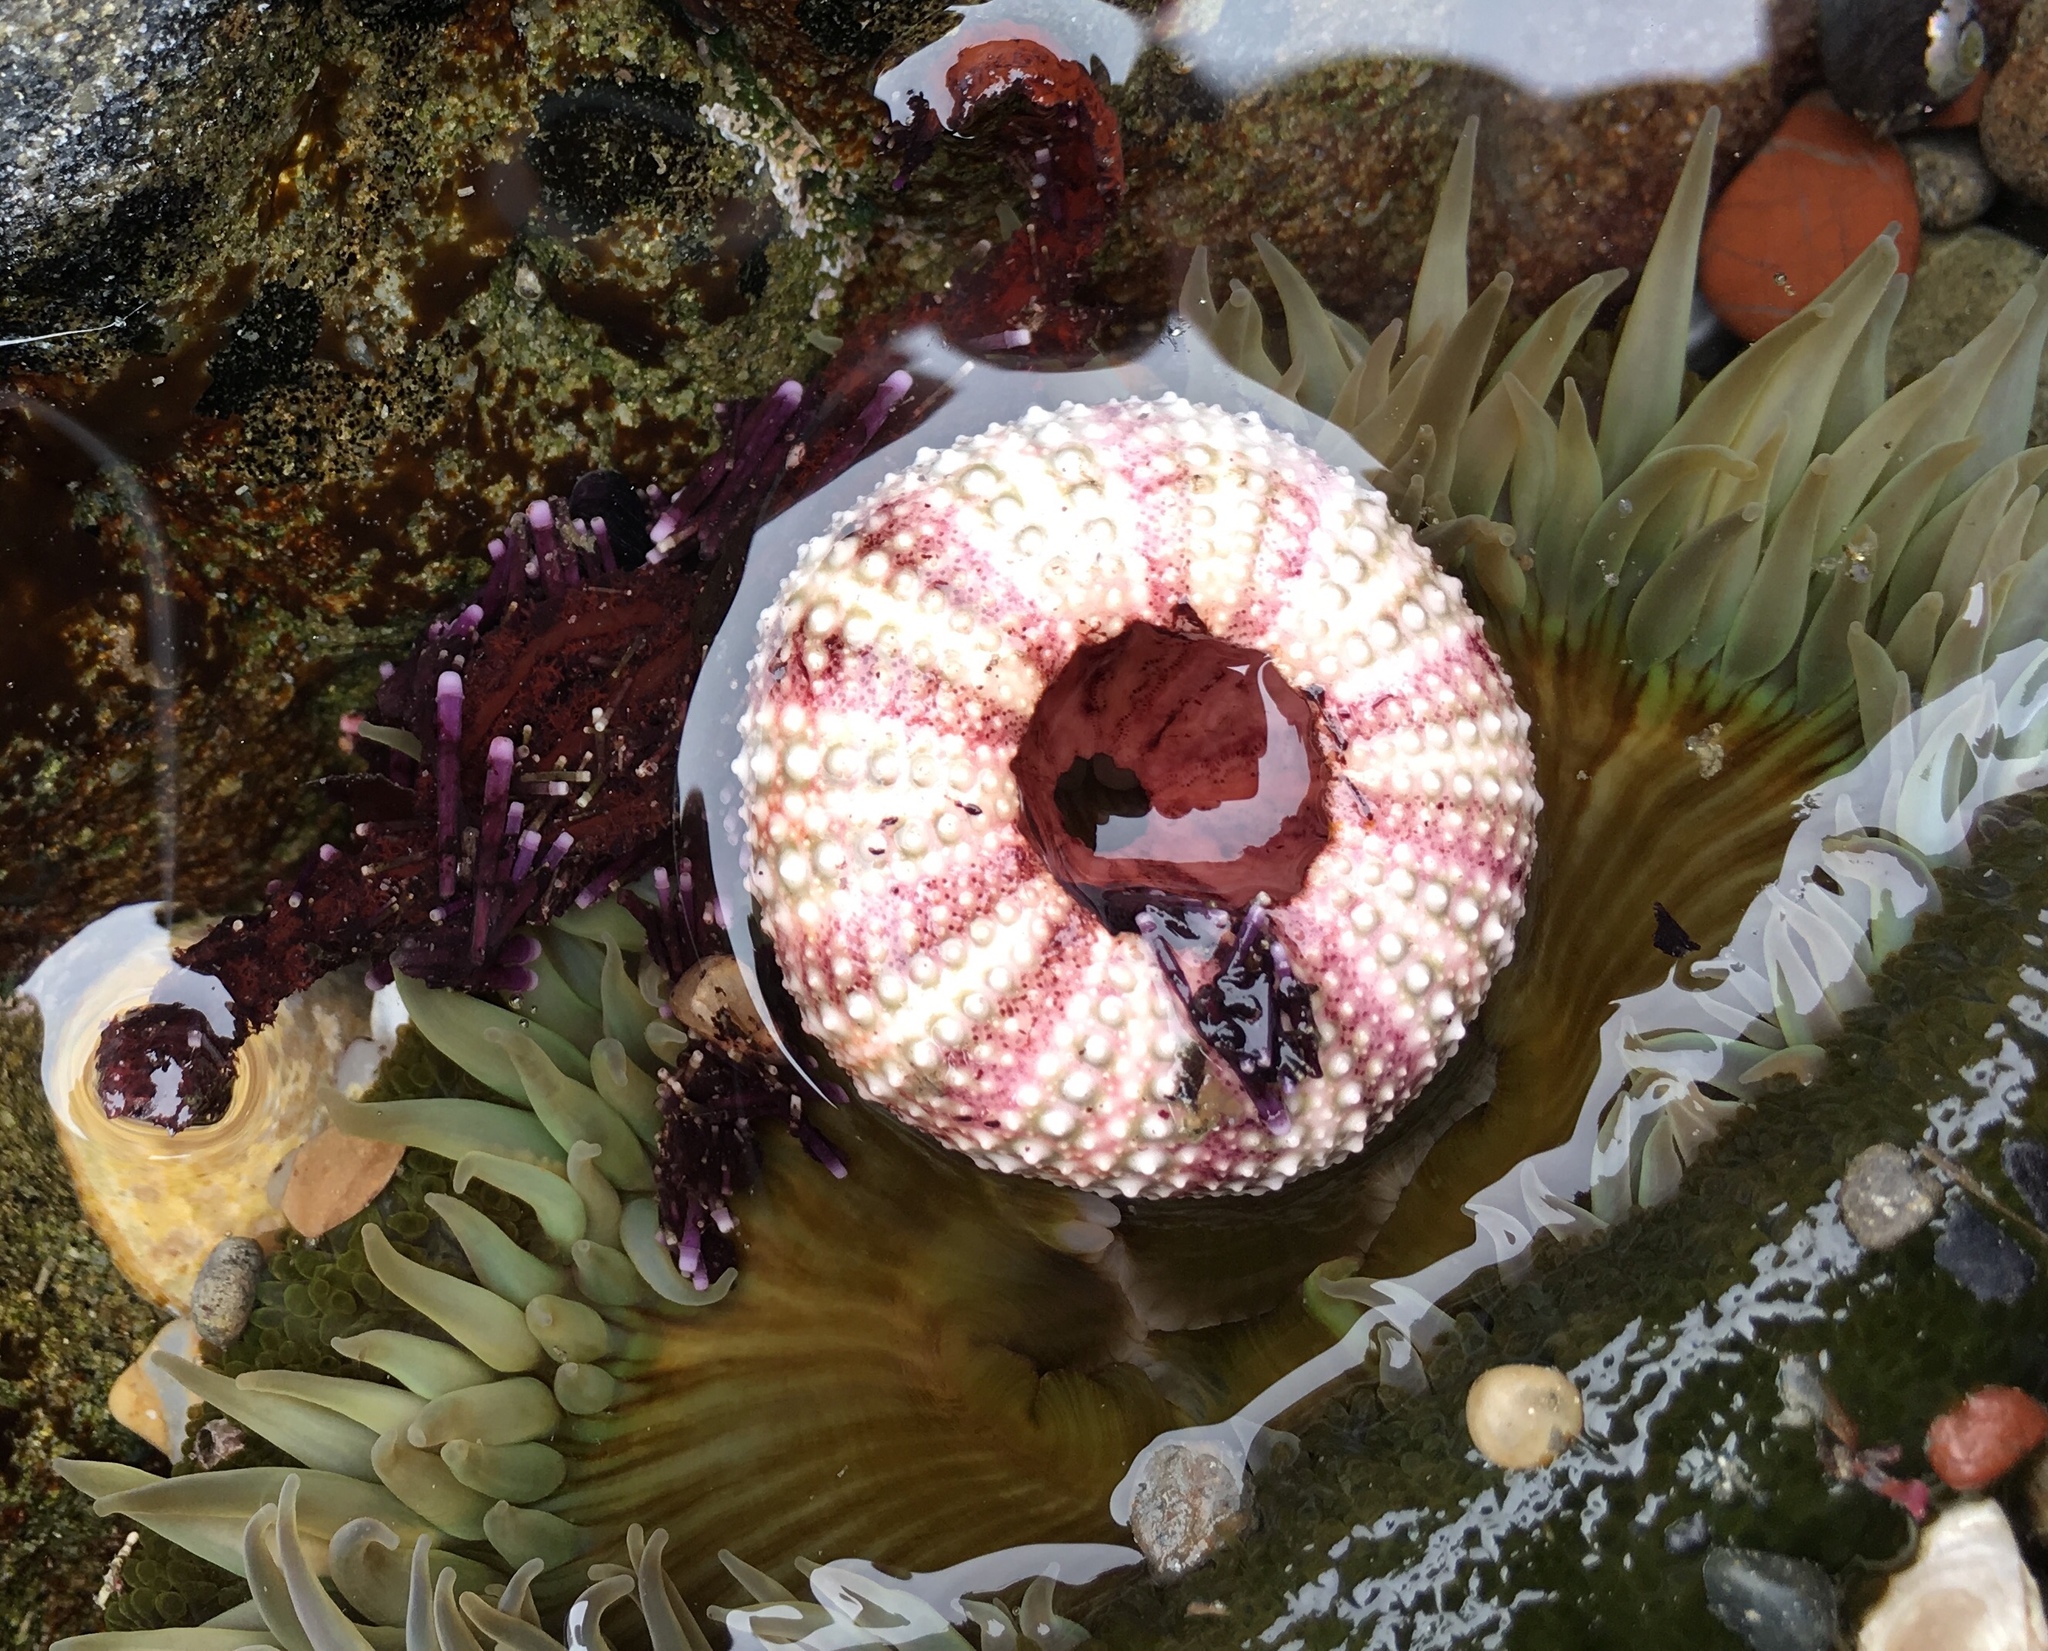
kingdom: Animalia
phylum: Echinodermata
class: Echinoidea
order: Camarodonta
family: Strongylocentrotidae
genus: Strongylocentrotus
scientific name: Strongylocentrotus purpuratus
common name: Purple sea urchin
